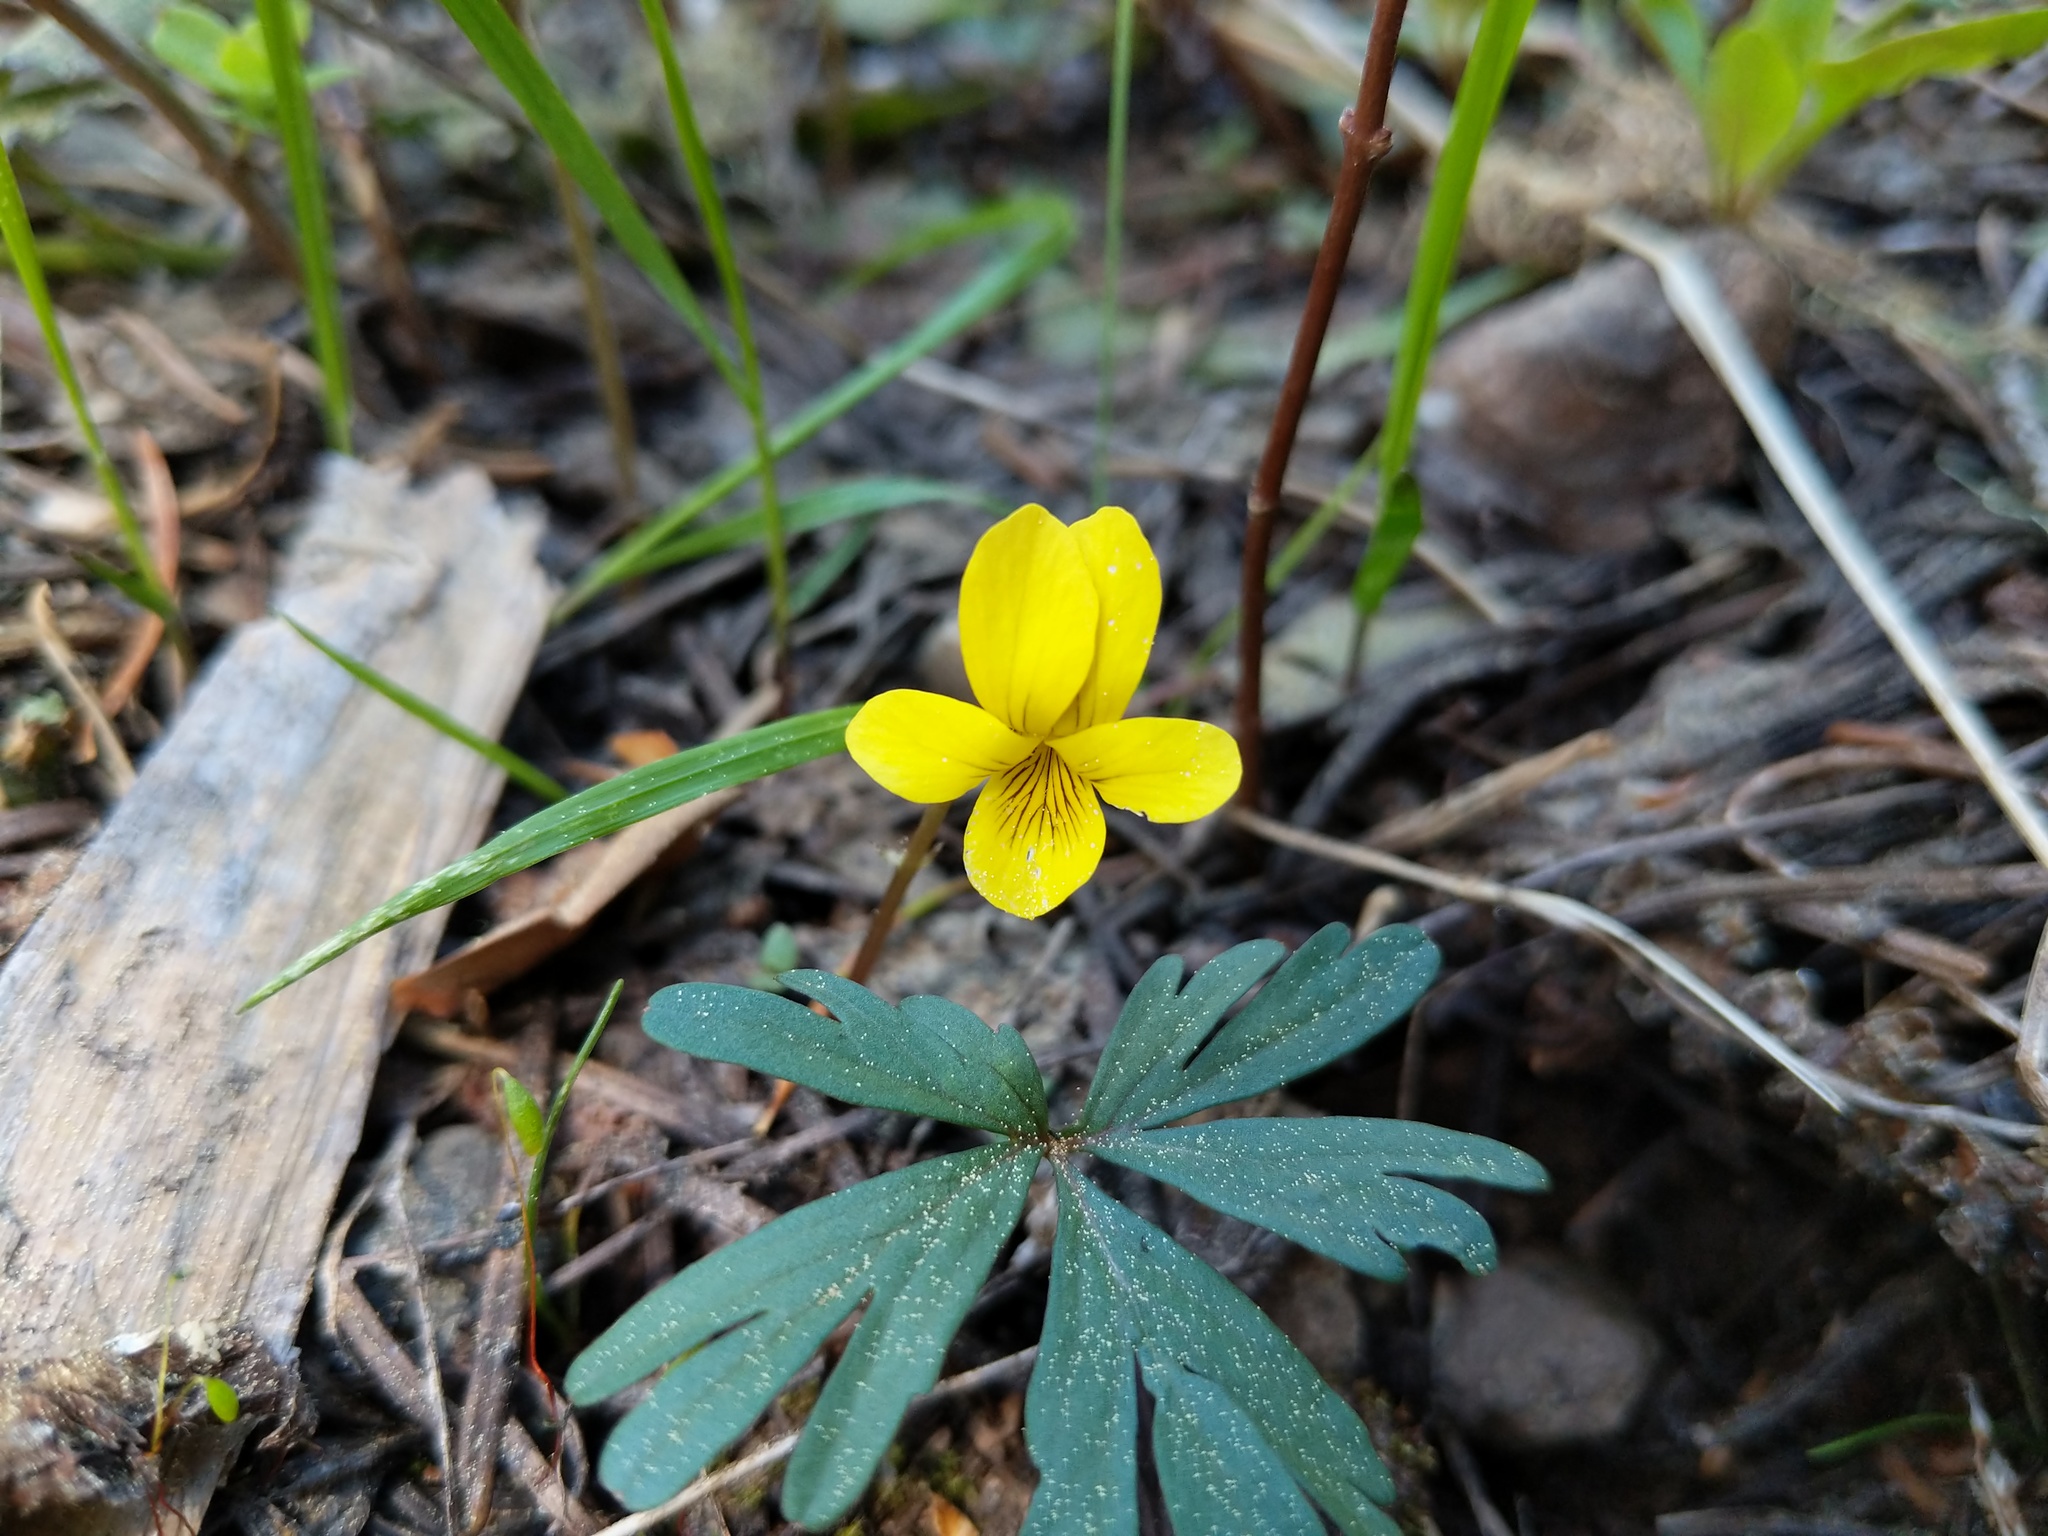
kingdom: Plantae
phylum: Tracheophyta
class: Magnoliopsida
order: Malpighiales
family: Violaceae
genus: Viola
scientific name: Viola sheltonii
